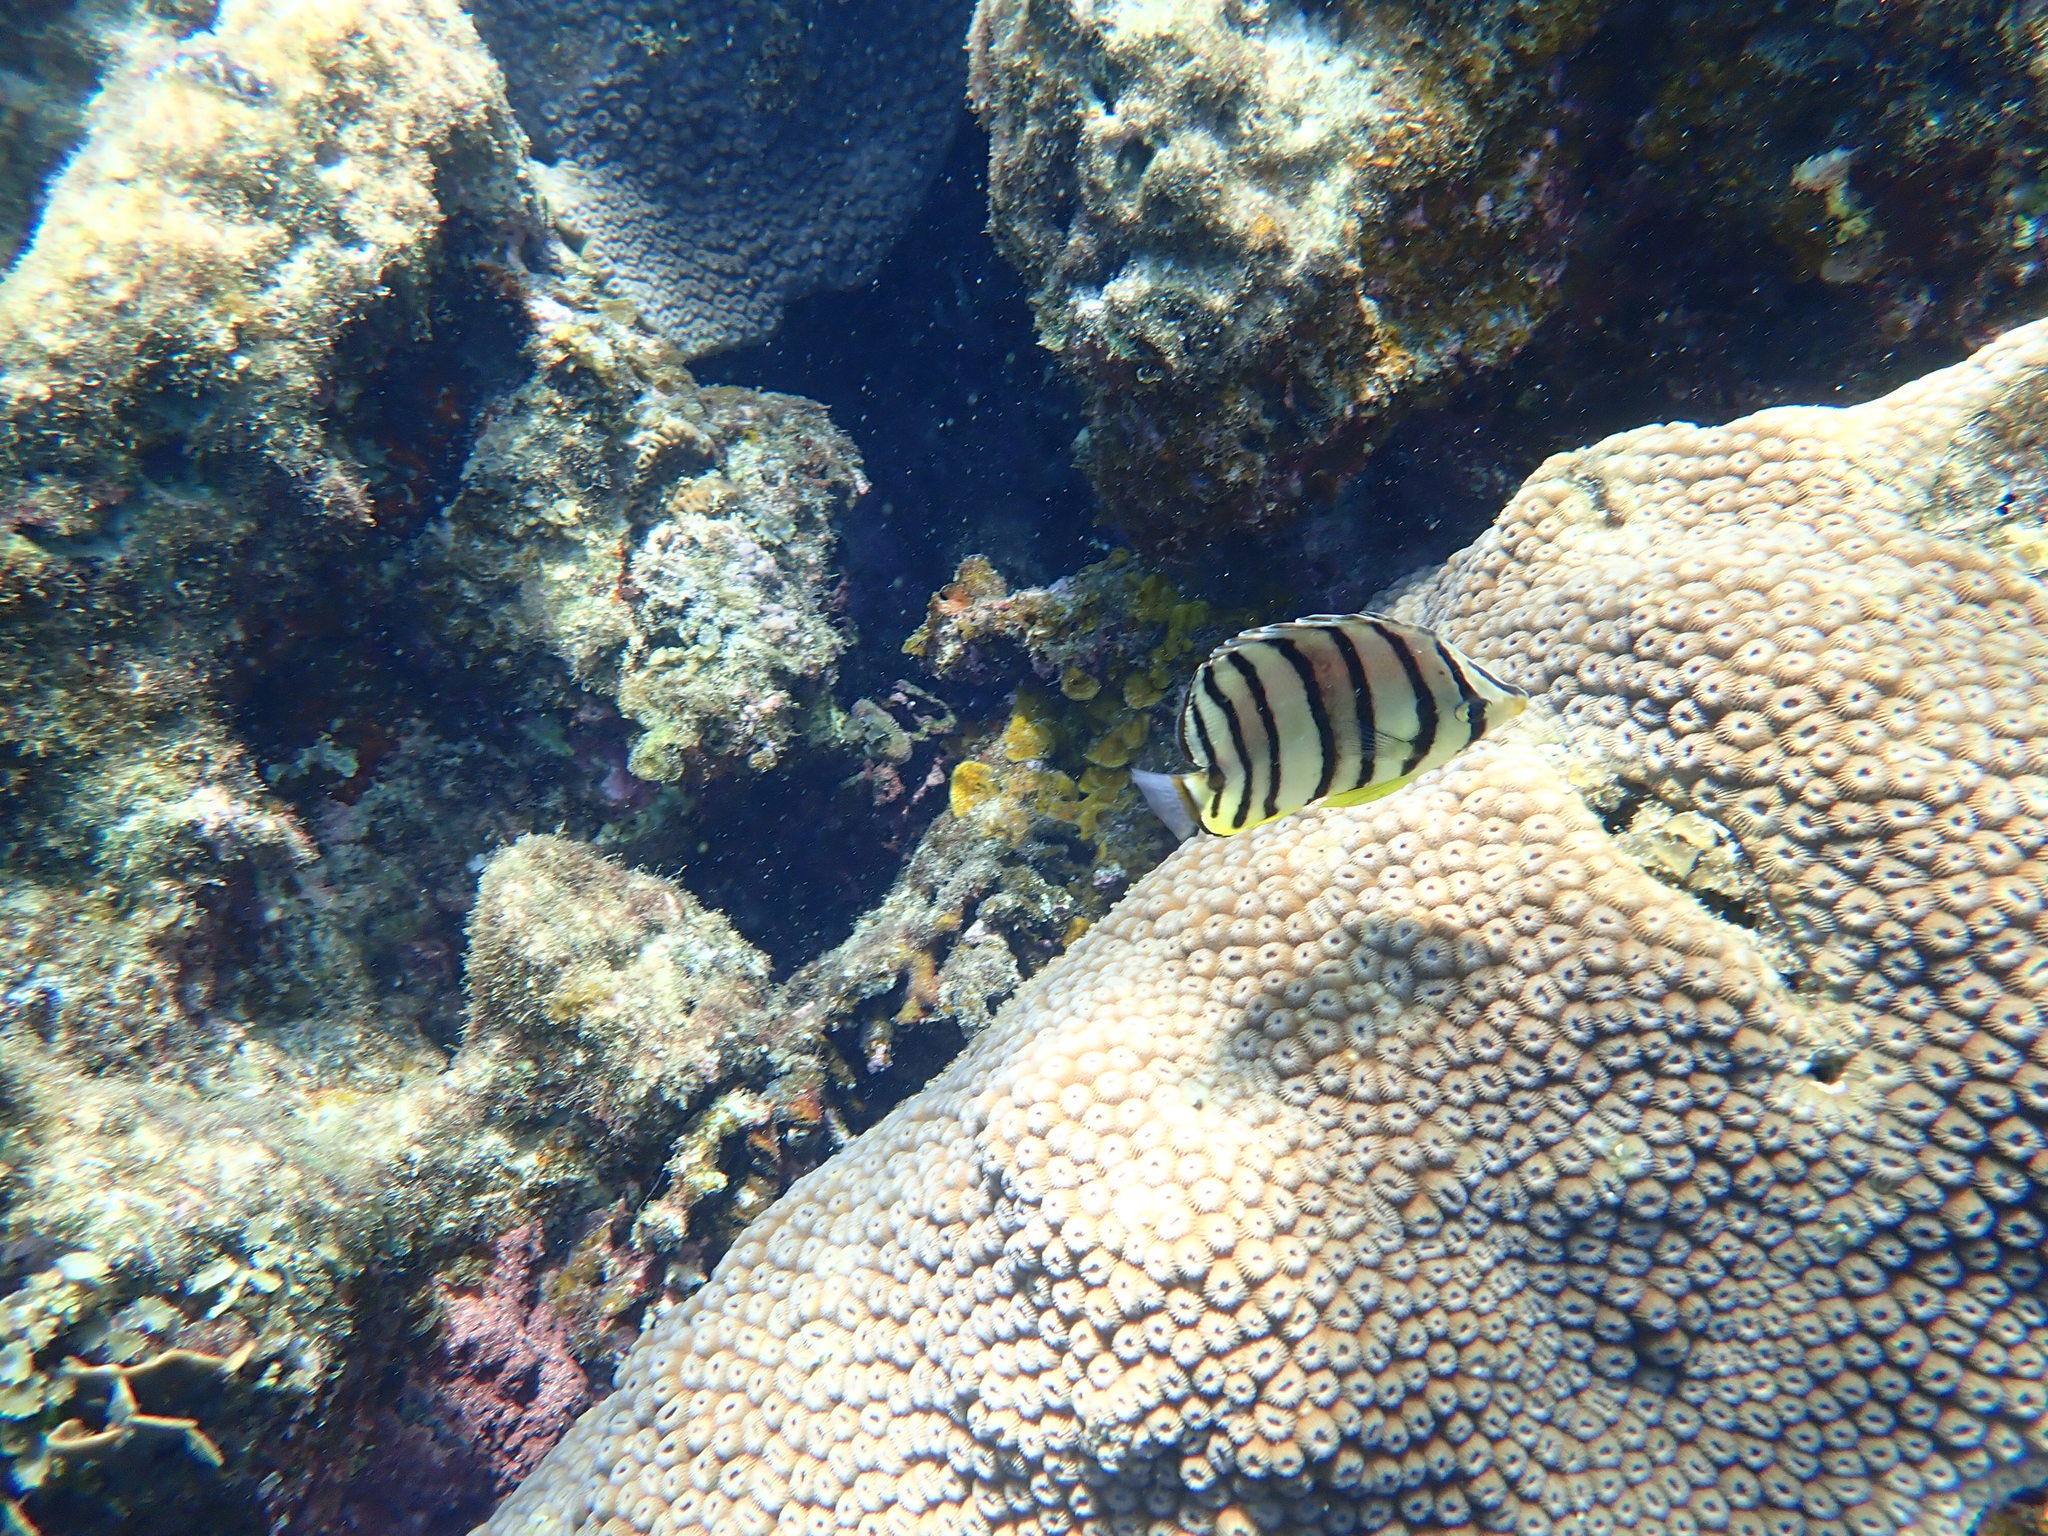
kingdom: Animalia
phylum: Chordata
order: Perciformes
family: Chaetodontidae
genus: Chaetodon
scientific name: Chaetodon octofasciatus
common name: Eightband butterflyfish
